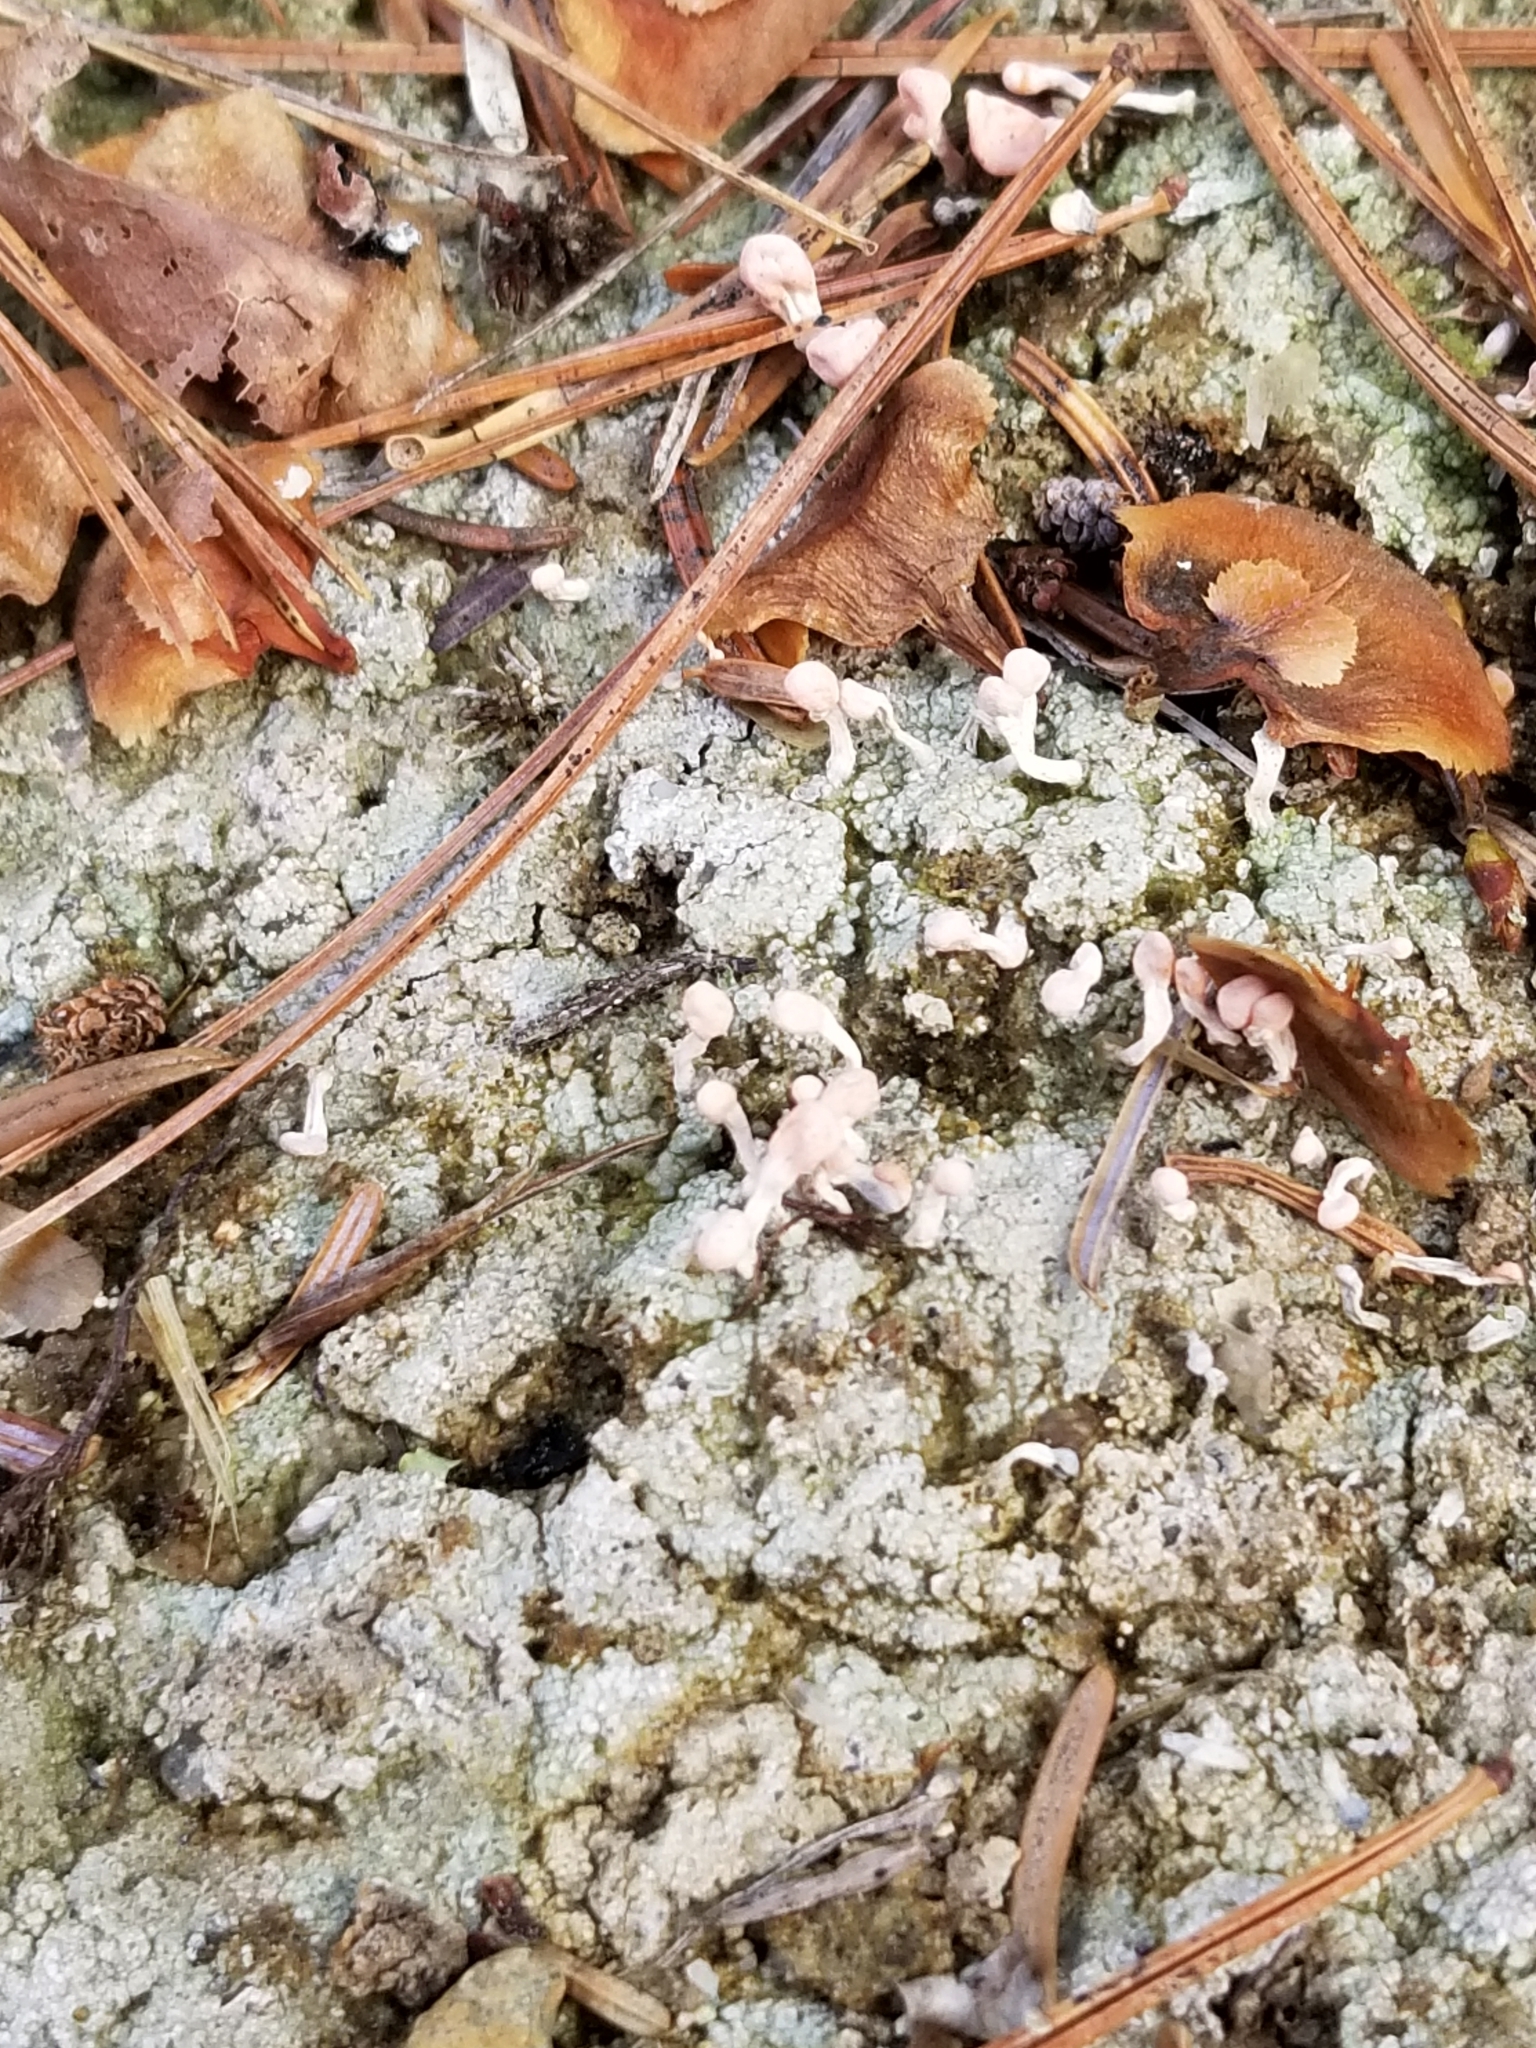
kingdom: Fungi
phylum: Ascomycota
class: Lecanoromycetes
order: Pertusariales
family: Icmadophilaceae
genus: Dibaeis
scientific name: Dibaeis baeomyces
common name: Pink earth lichen
